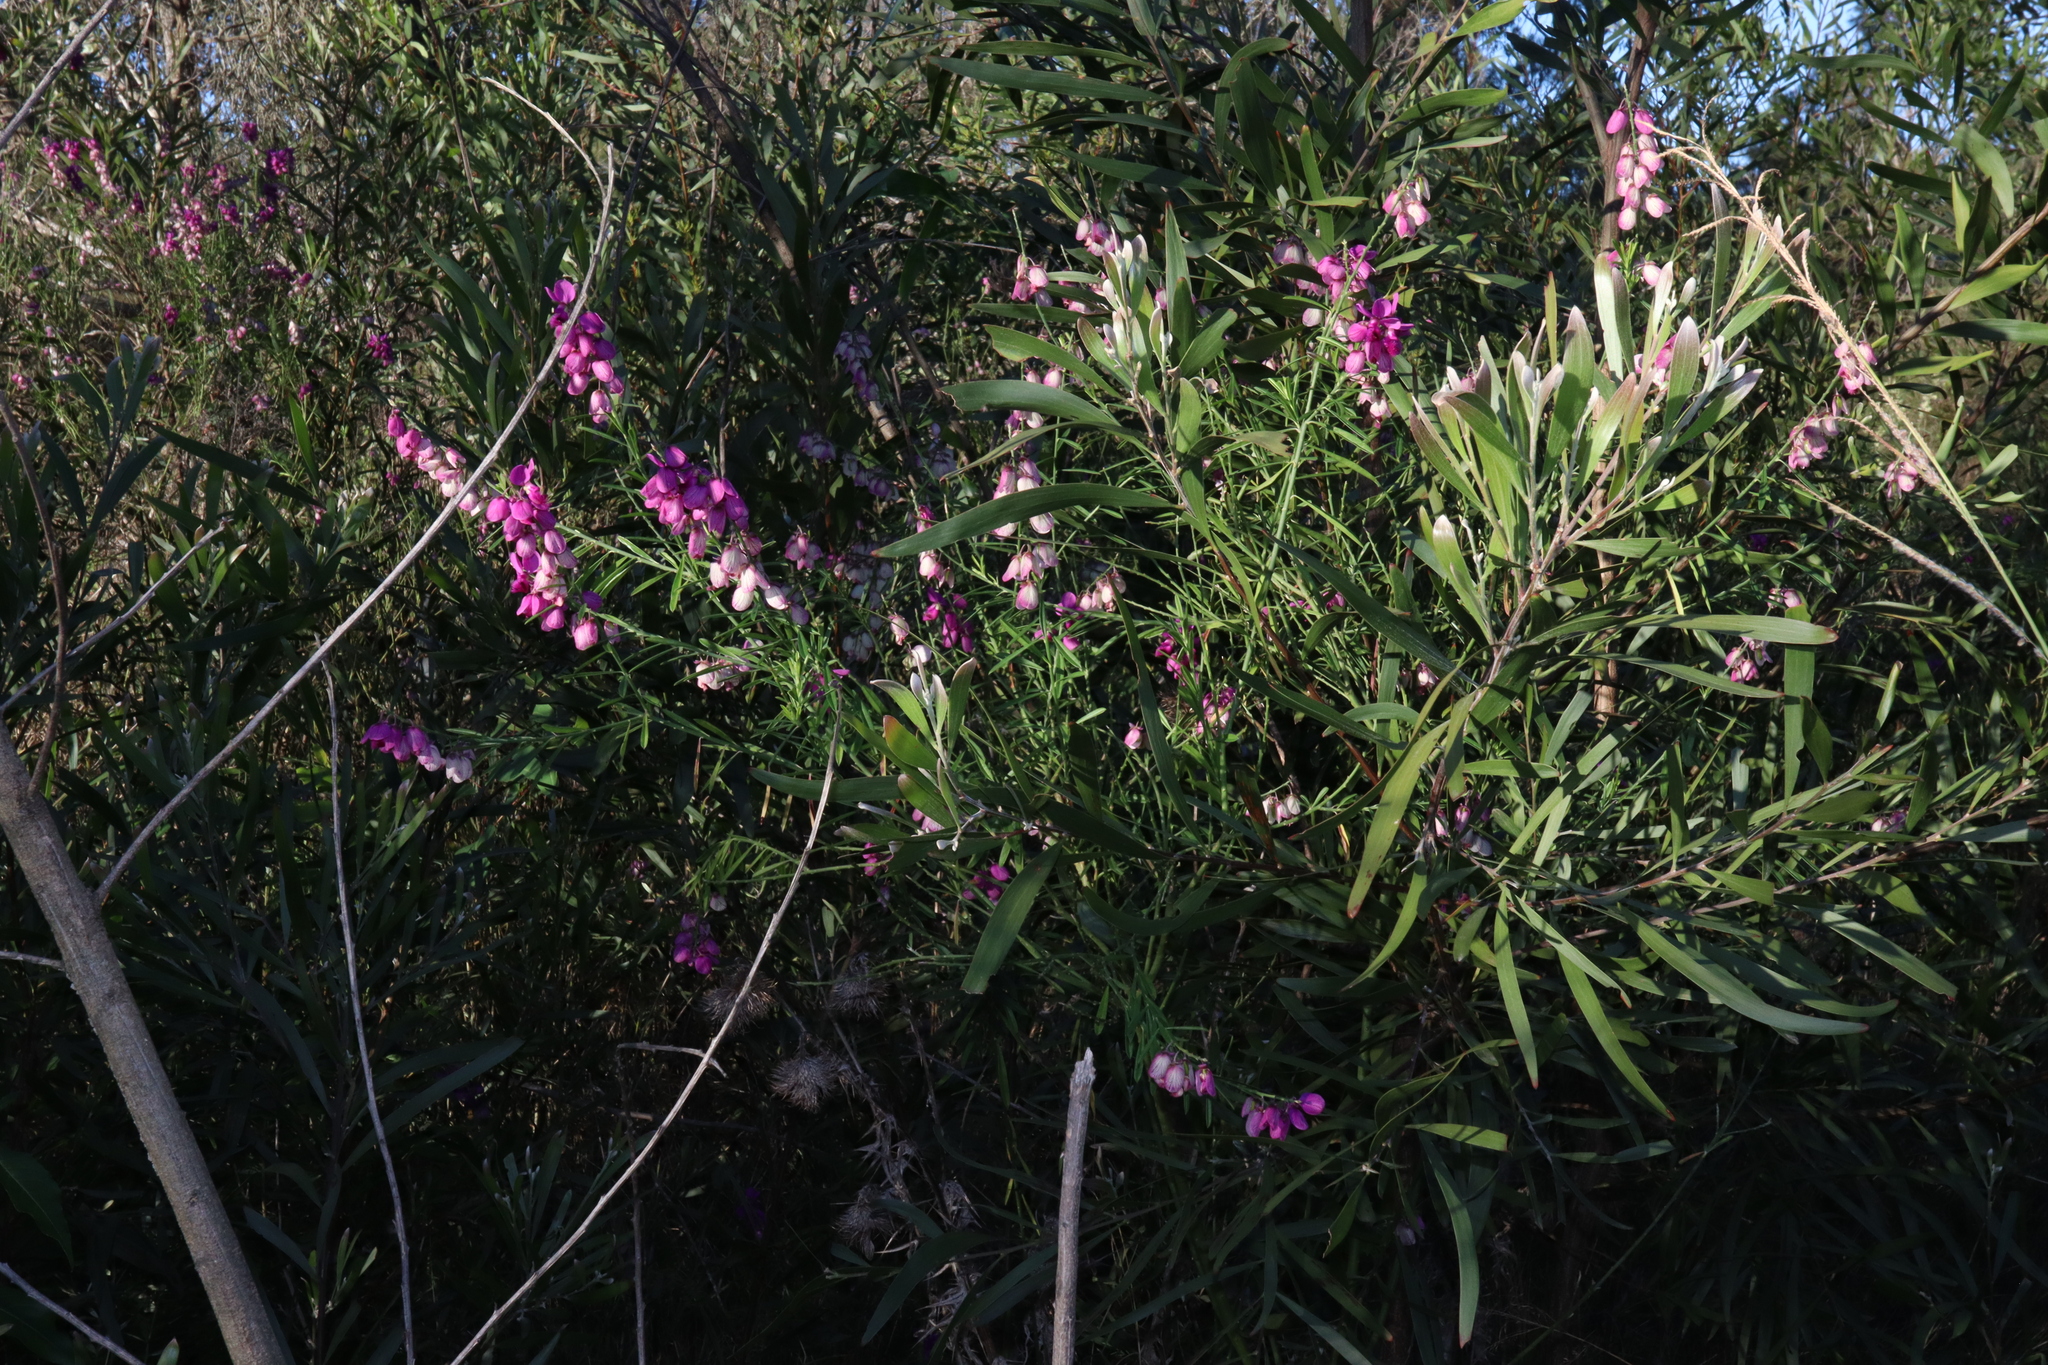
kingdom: Plantae
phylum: Tracheophyta
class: Magnoliopsida
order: Fabales
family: Polygalaceae
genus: Polygala
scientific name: Polygala virgata
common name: Milkwort
